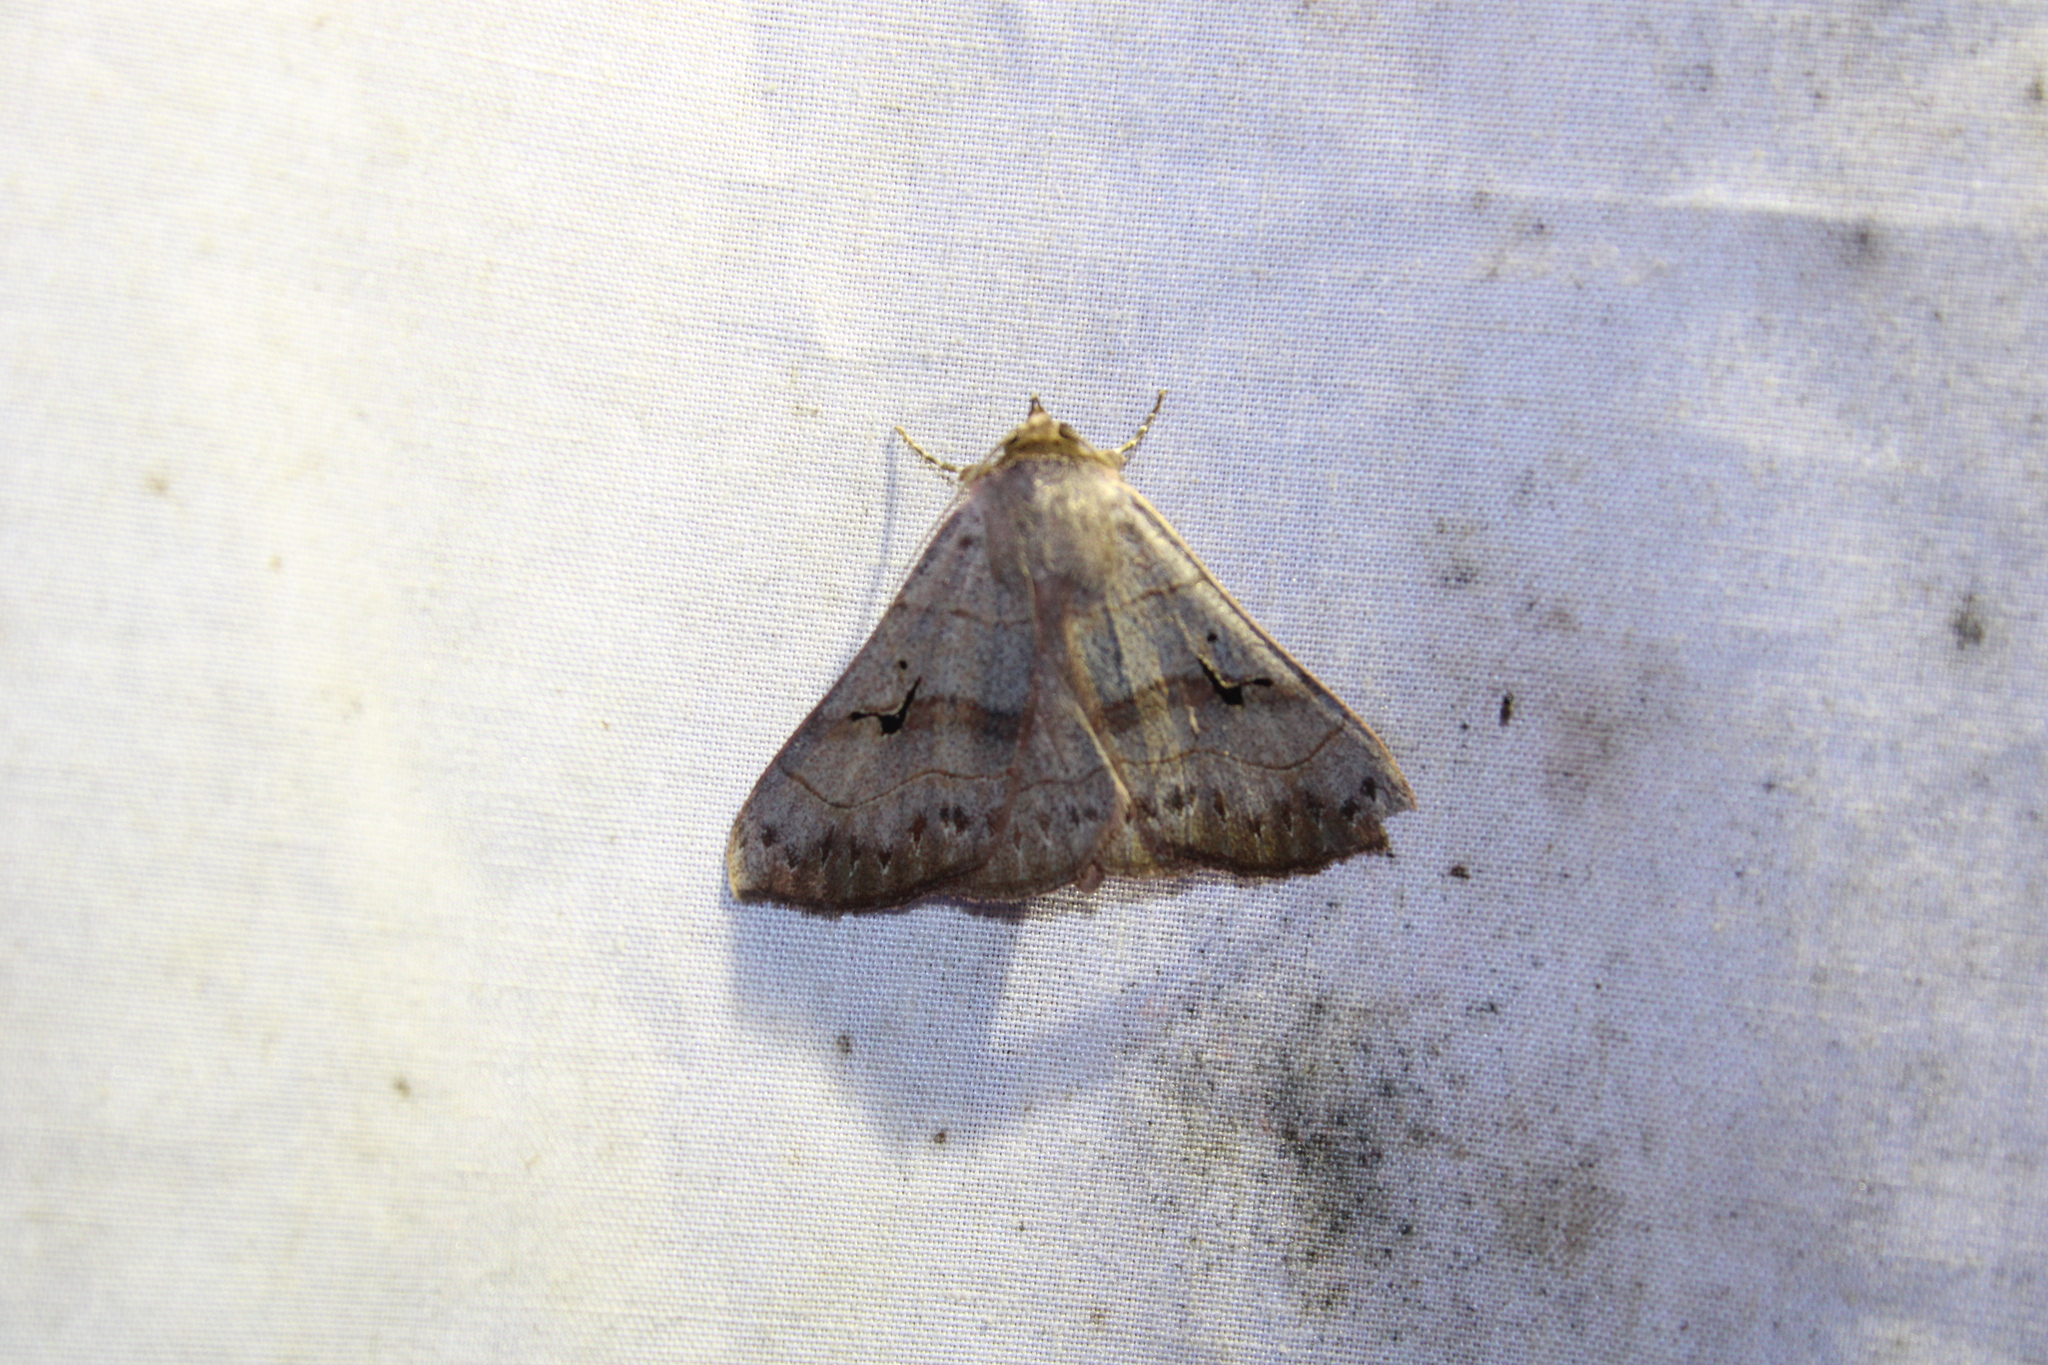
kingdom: Animalia
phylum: Arthropoda
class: Insecta
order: Lepidoptera
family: Erebidae
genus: Panopoda
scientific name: Panopoda carneicosta
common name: Brown panopoda moth
